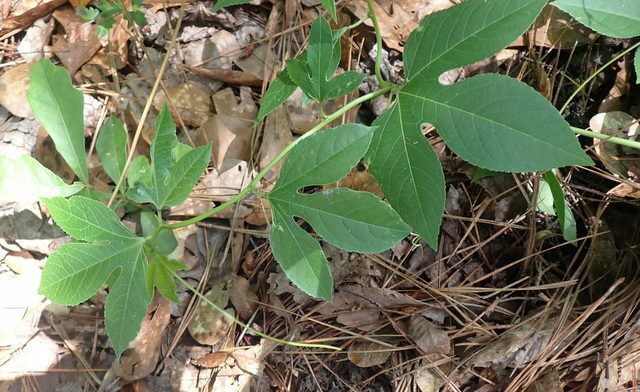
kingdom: Plantae
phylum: Tracheophyta
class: Magnoliopsida
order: Malpighiales
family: Passifloraceae
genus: Passiflora
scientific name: Passiflora incarnata
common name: Apricot-vine
